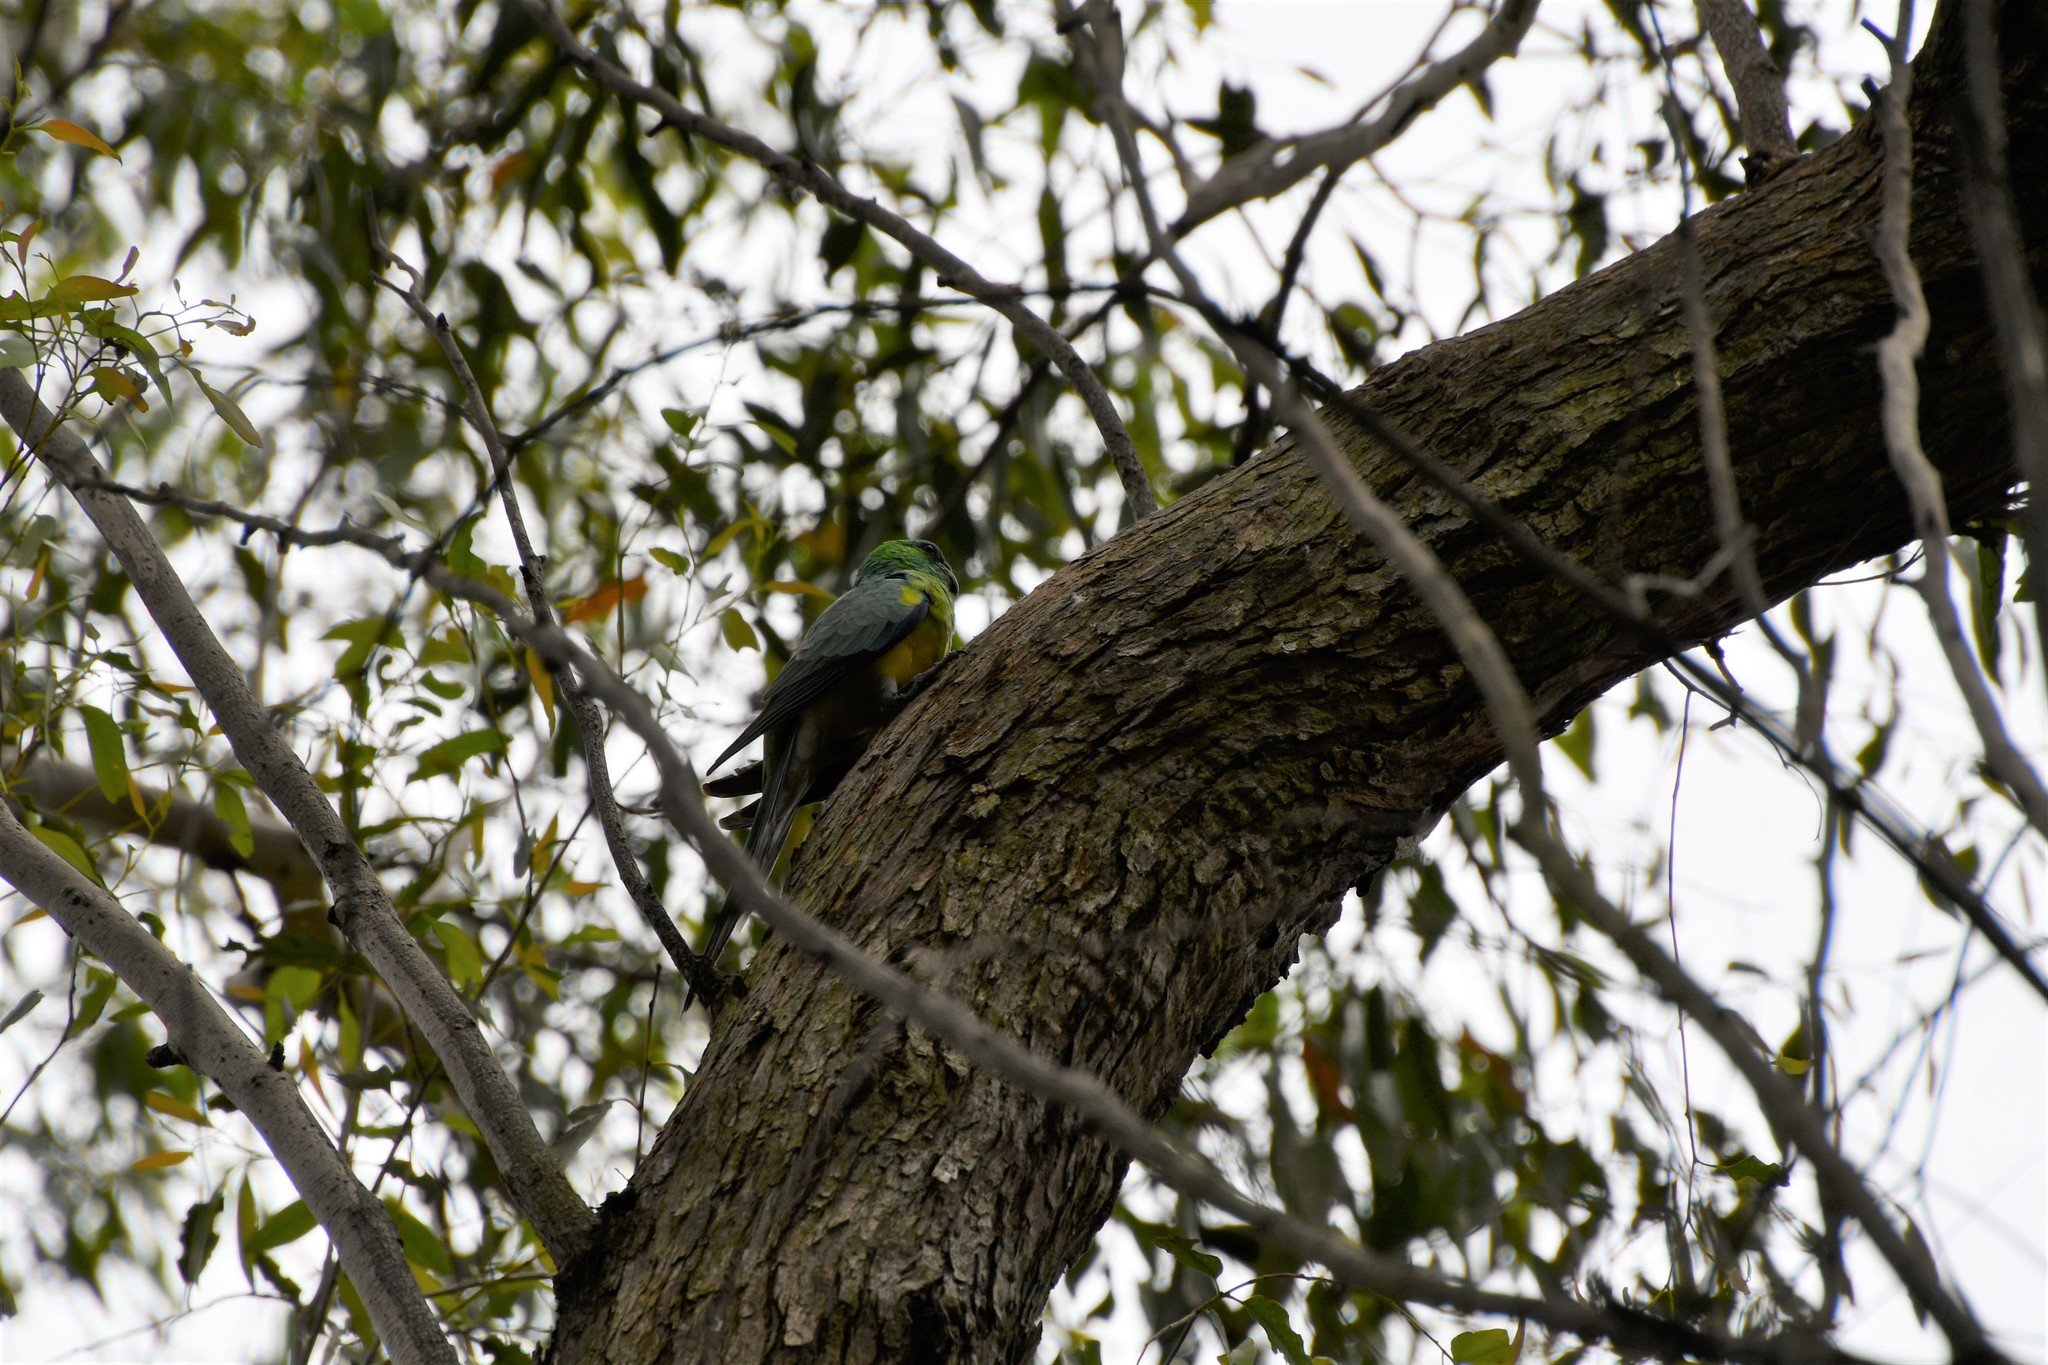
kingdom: Animalia
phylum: Chordata
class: Aves
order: Psittaciformes
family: Psittacidae
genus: Psephotus
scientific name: Psephotus haematonotus
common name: Red-rumped parrot
